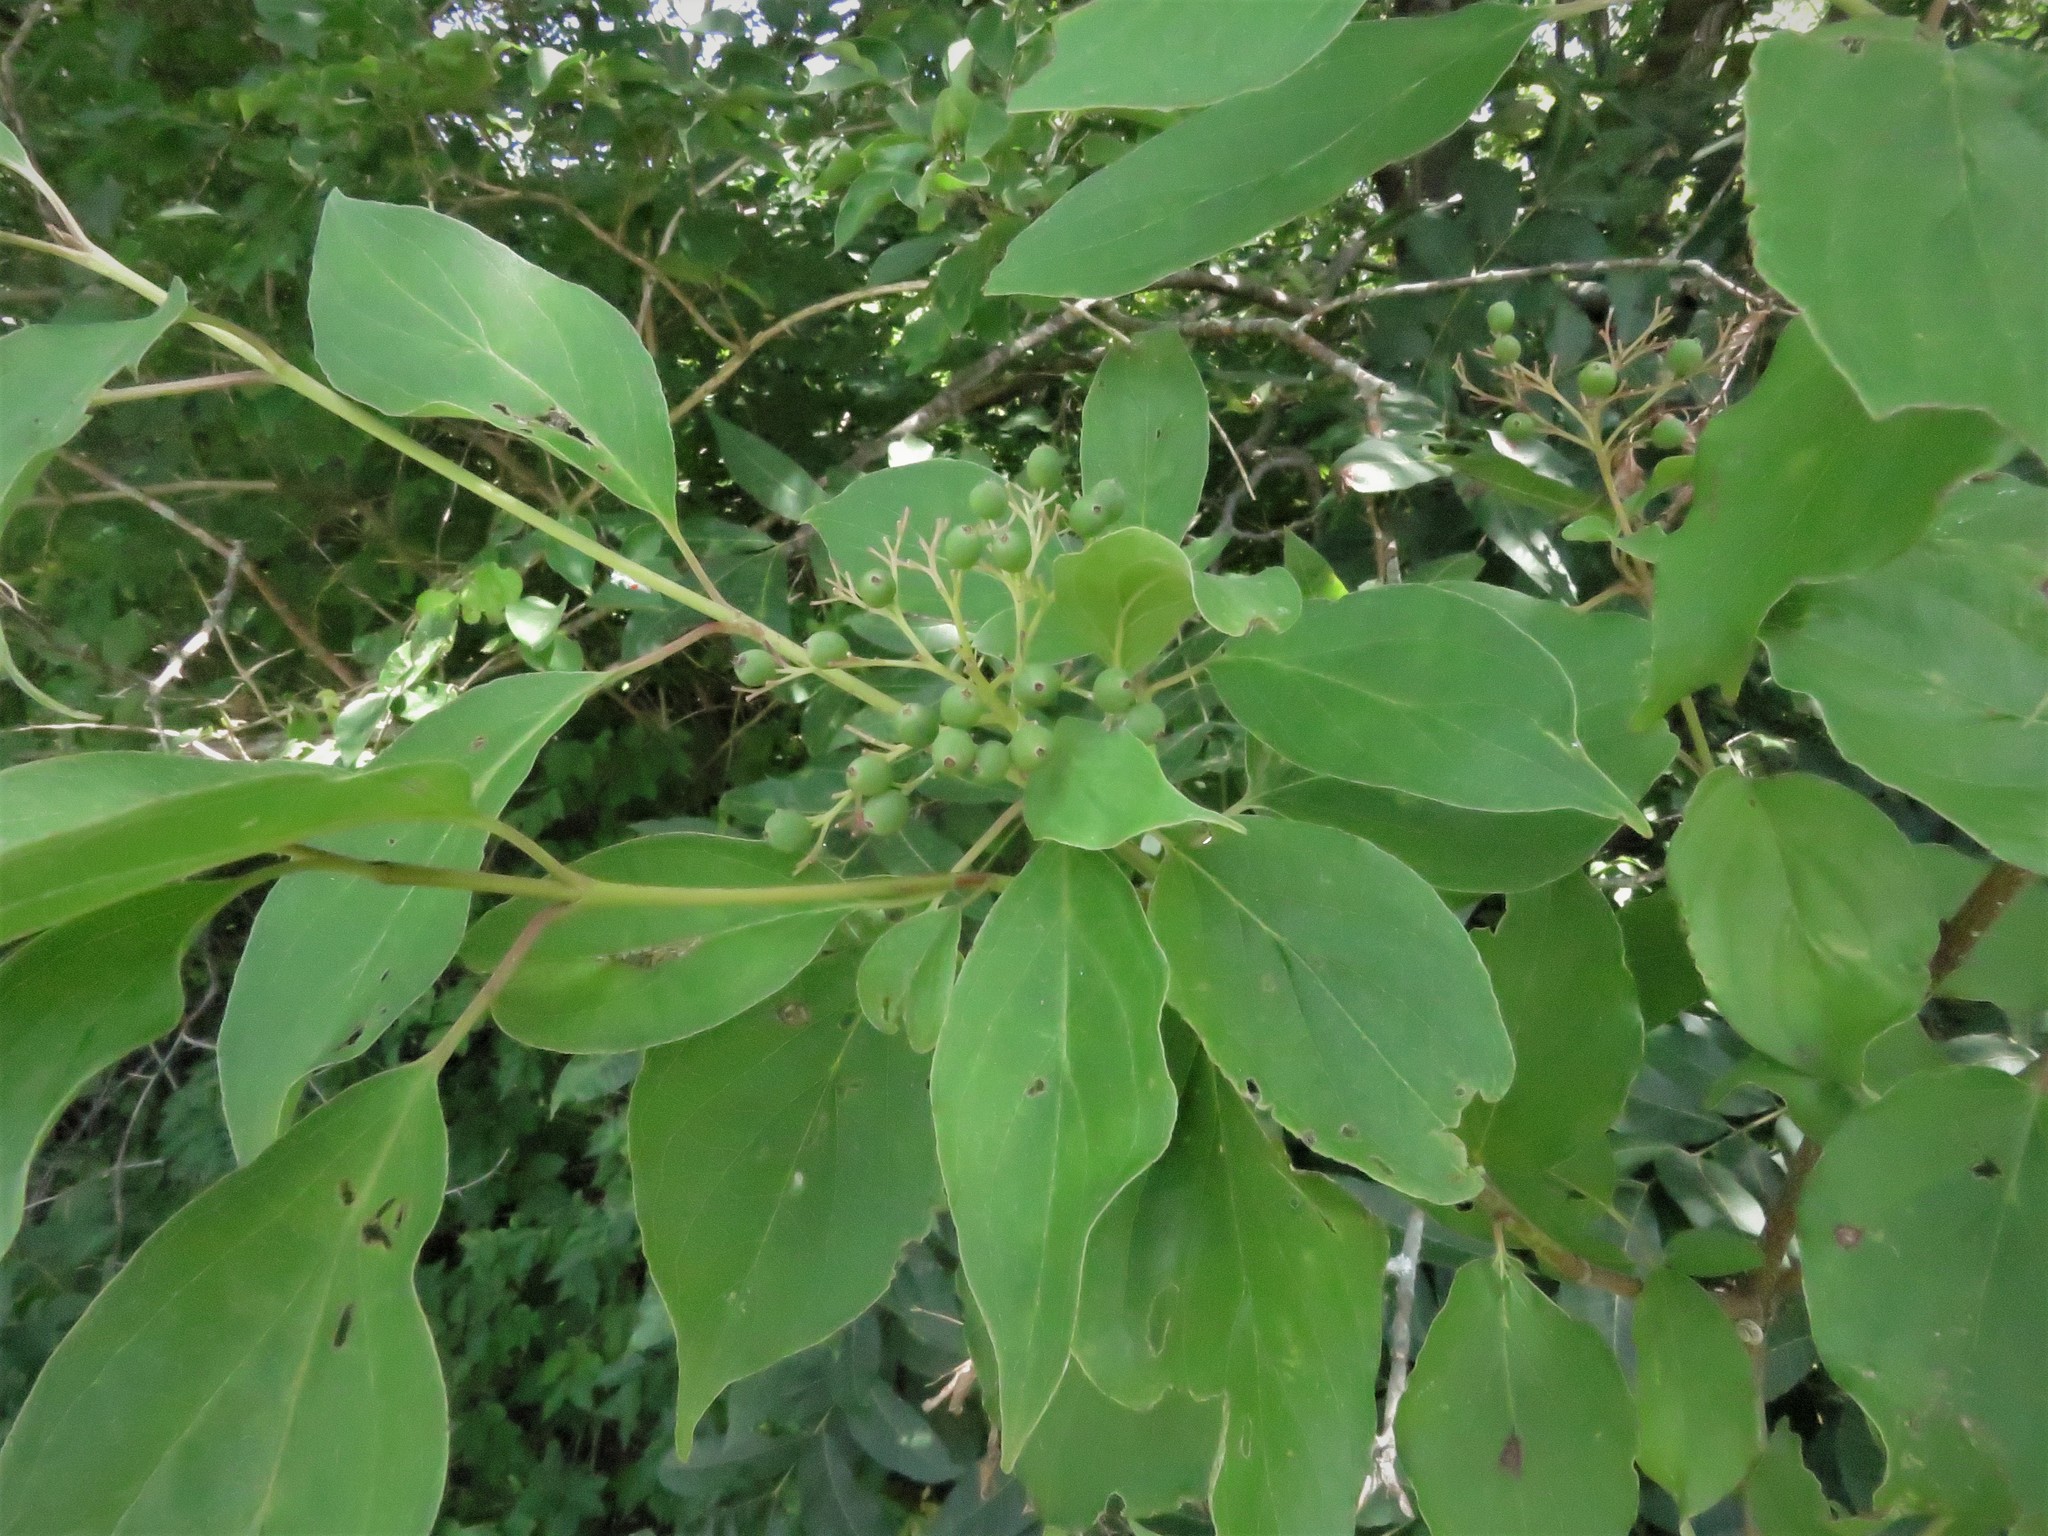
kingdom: Plantae
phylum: Tracheophyta
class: Magnoliopsida
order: Cornales
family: Cornaceae
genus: Cornus
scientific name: Cornus drummondii
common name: Rough-leaf dogwood
